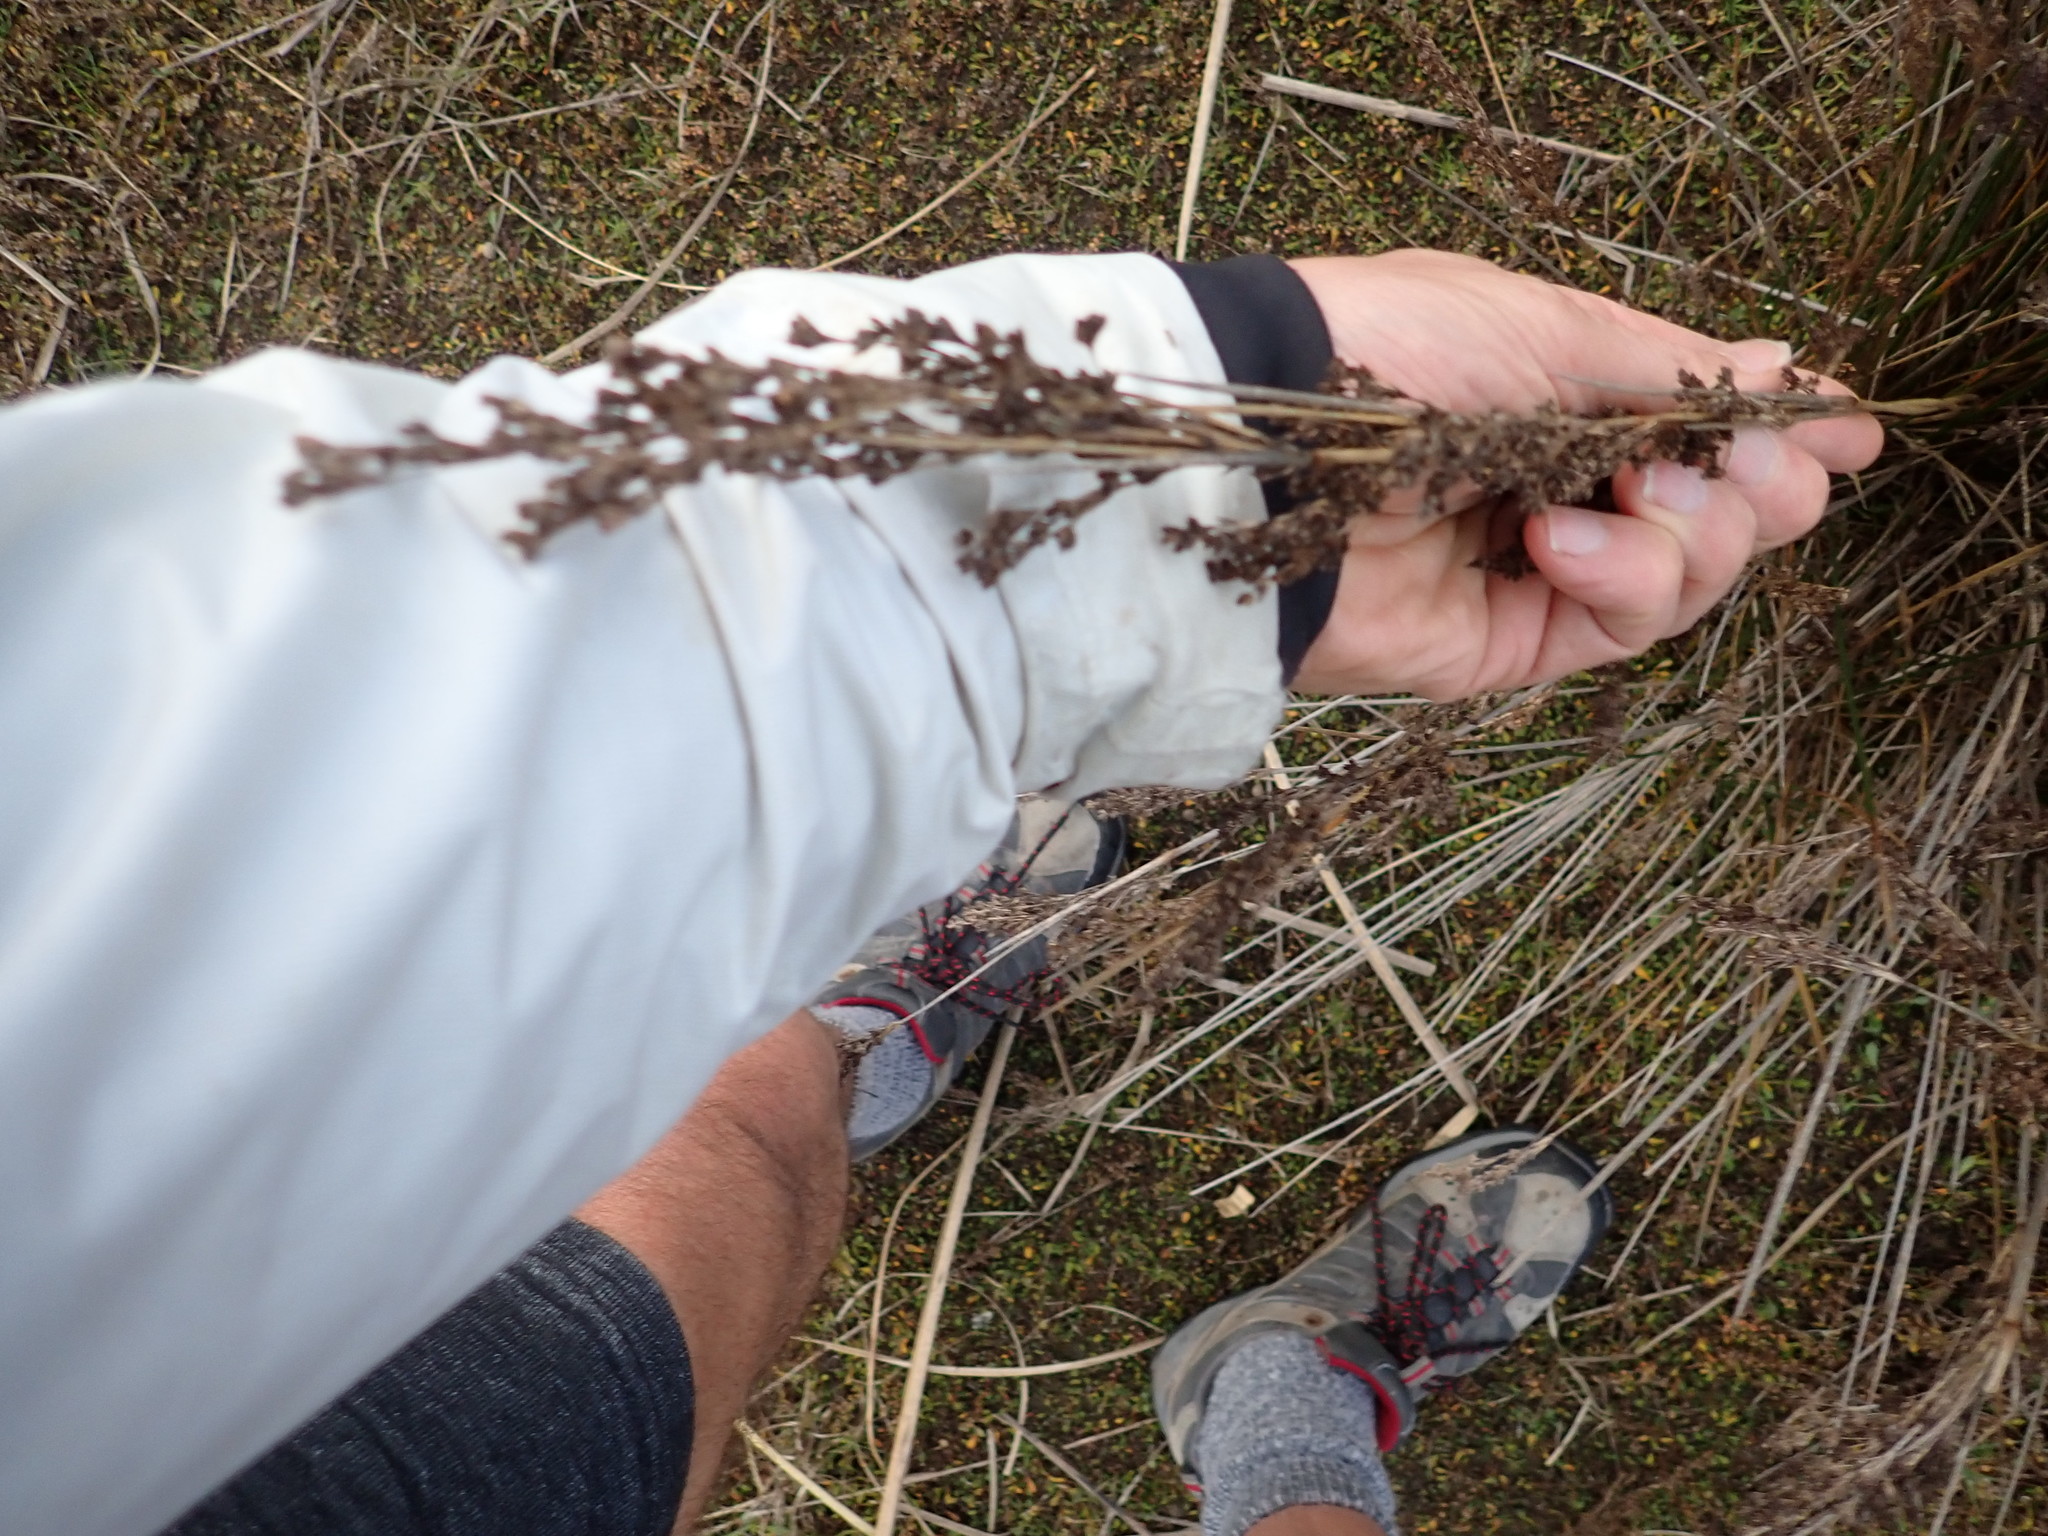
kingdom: Plantae
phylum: Tracheophyta
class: Liliopsida
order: Poales
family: Juncaceae
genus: Juncus
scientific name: Juncus kraussii
